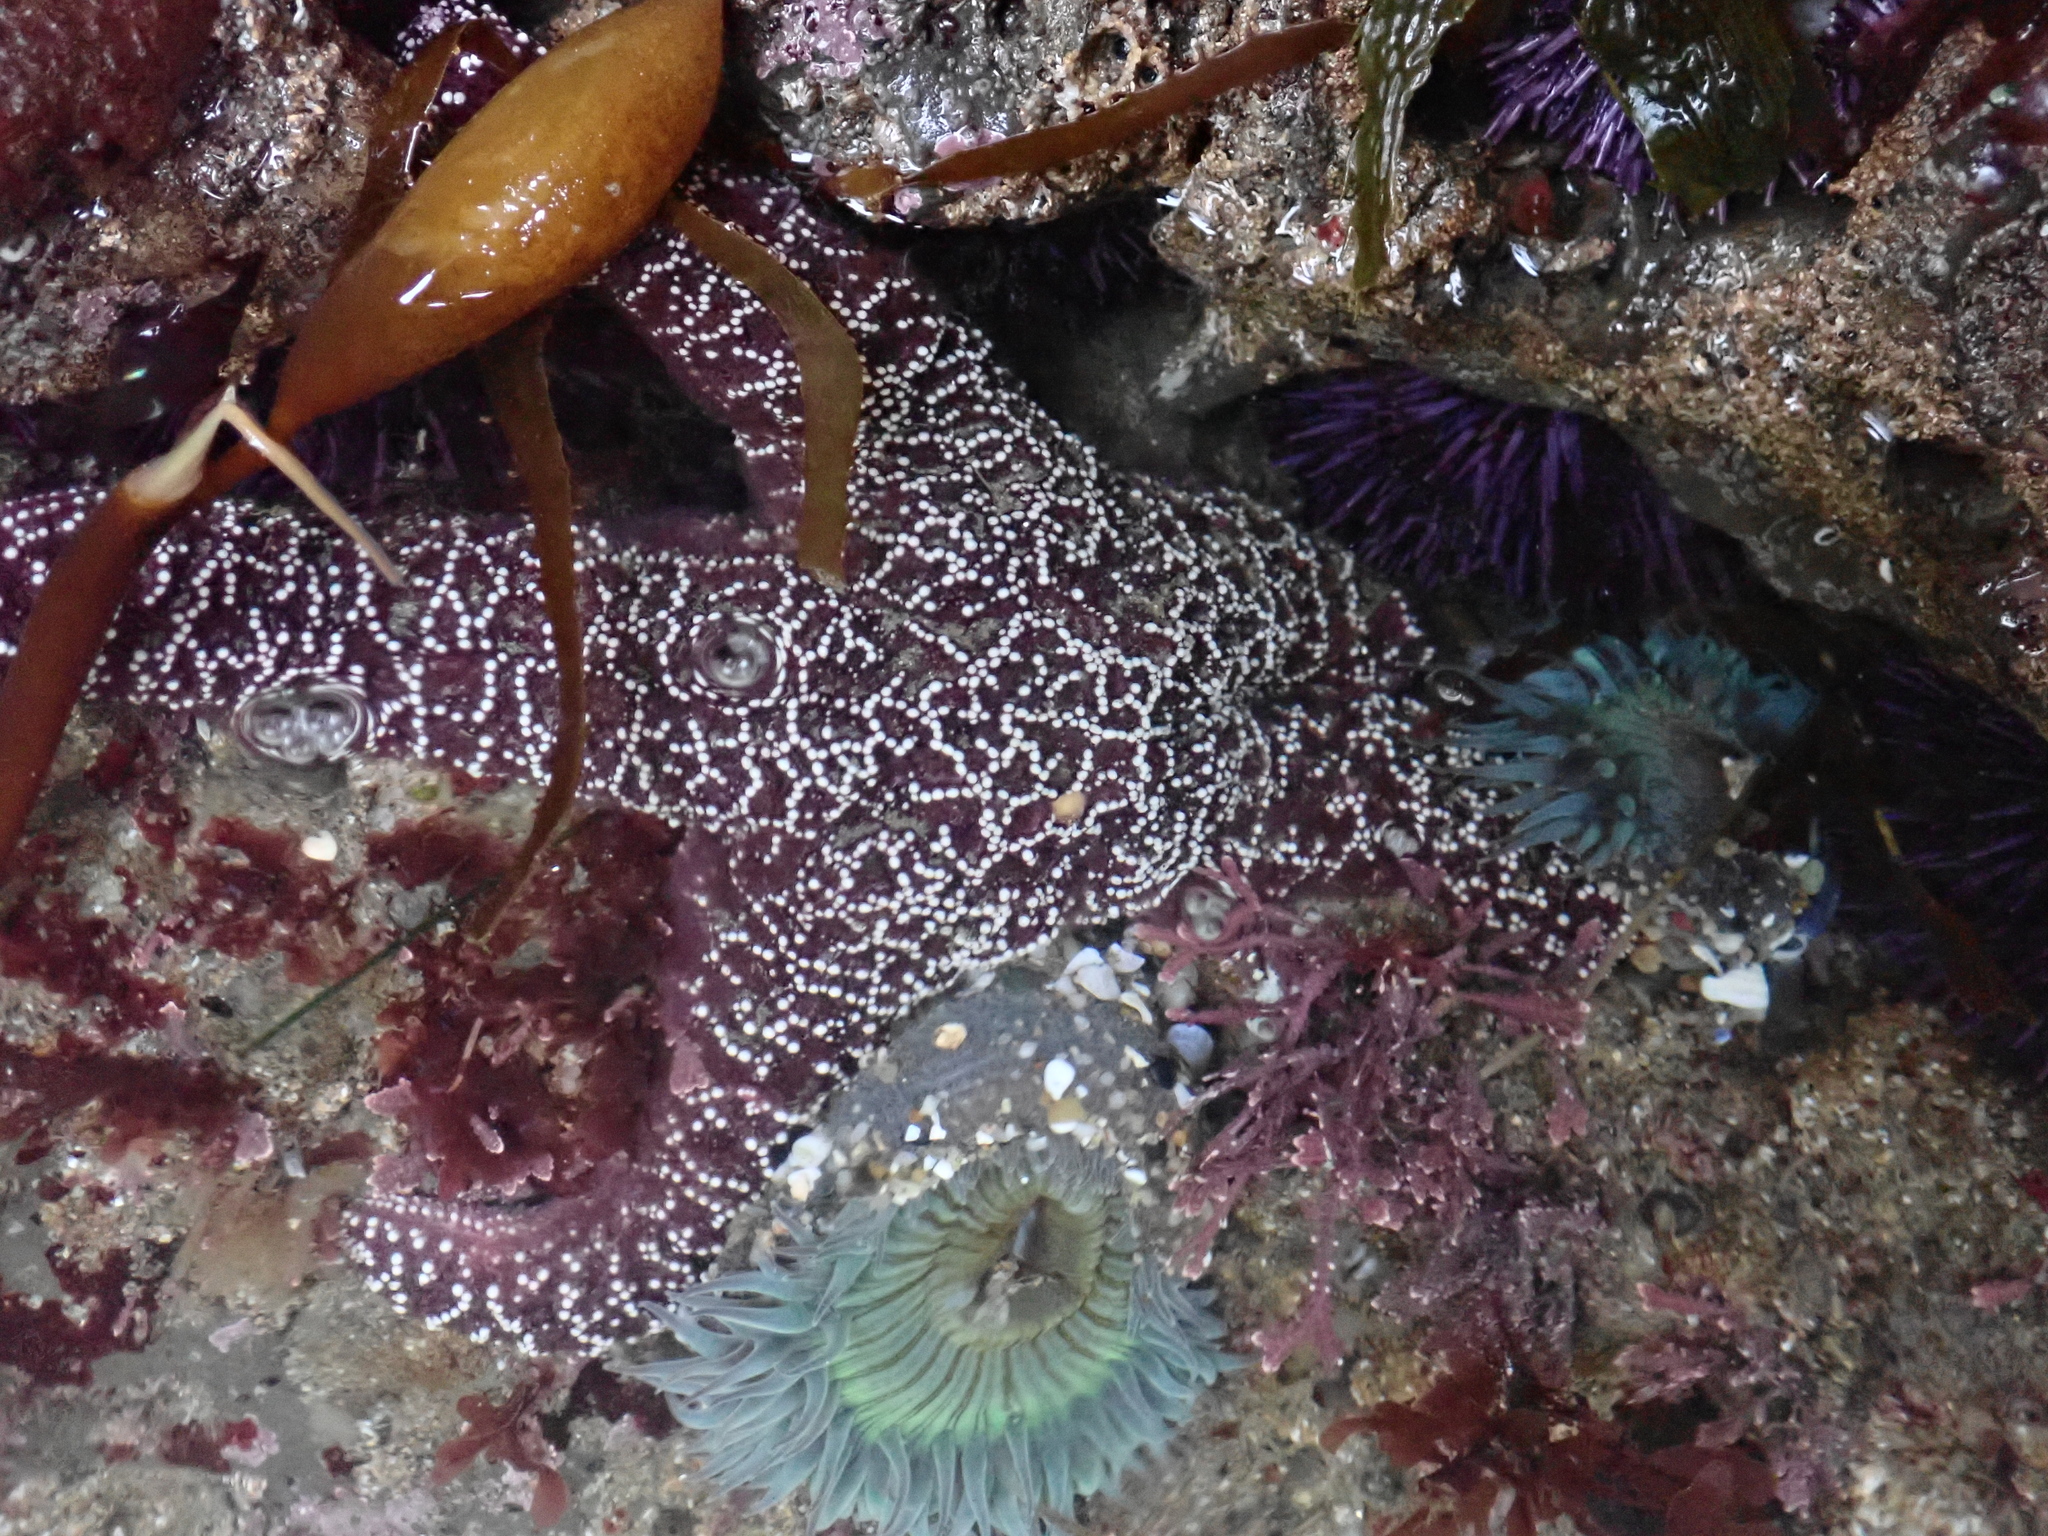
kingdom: Animalia
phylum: Echinodermata
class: Asteroidea
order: Forcipulatida
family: Asteriidae
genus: Pisaster
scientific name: Pisaster ochraceus
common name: Ochre stars
